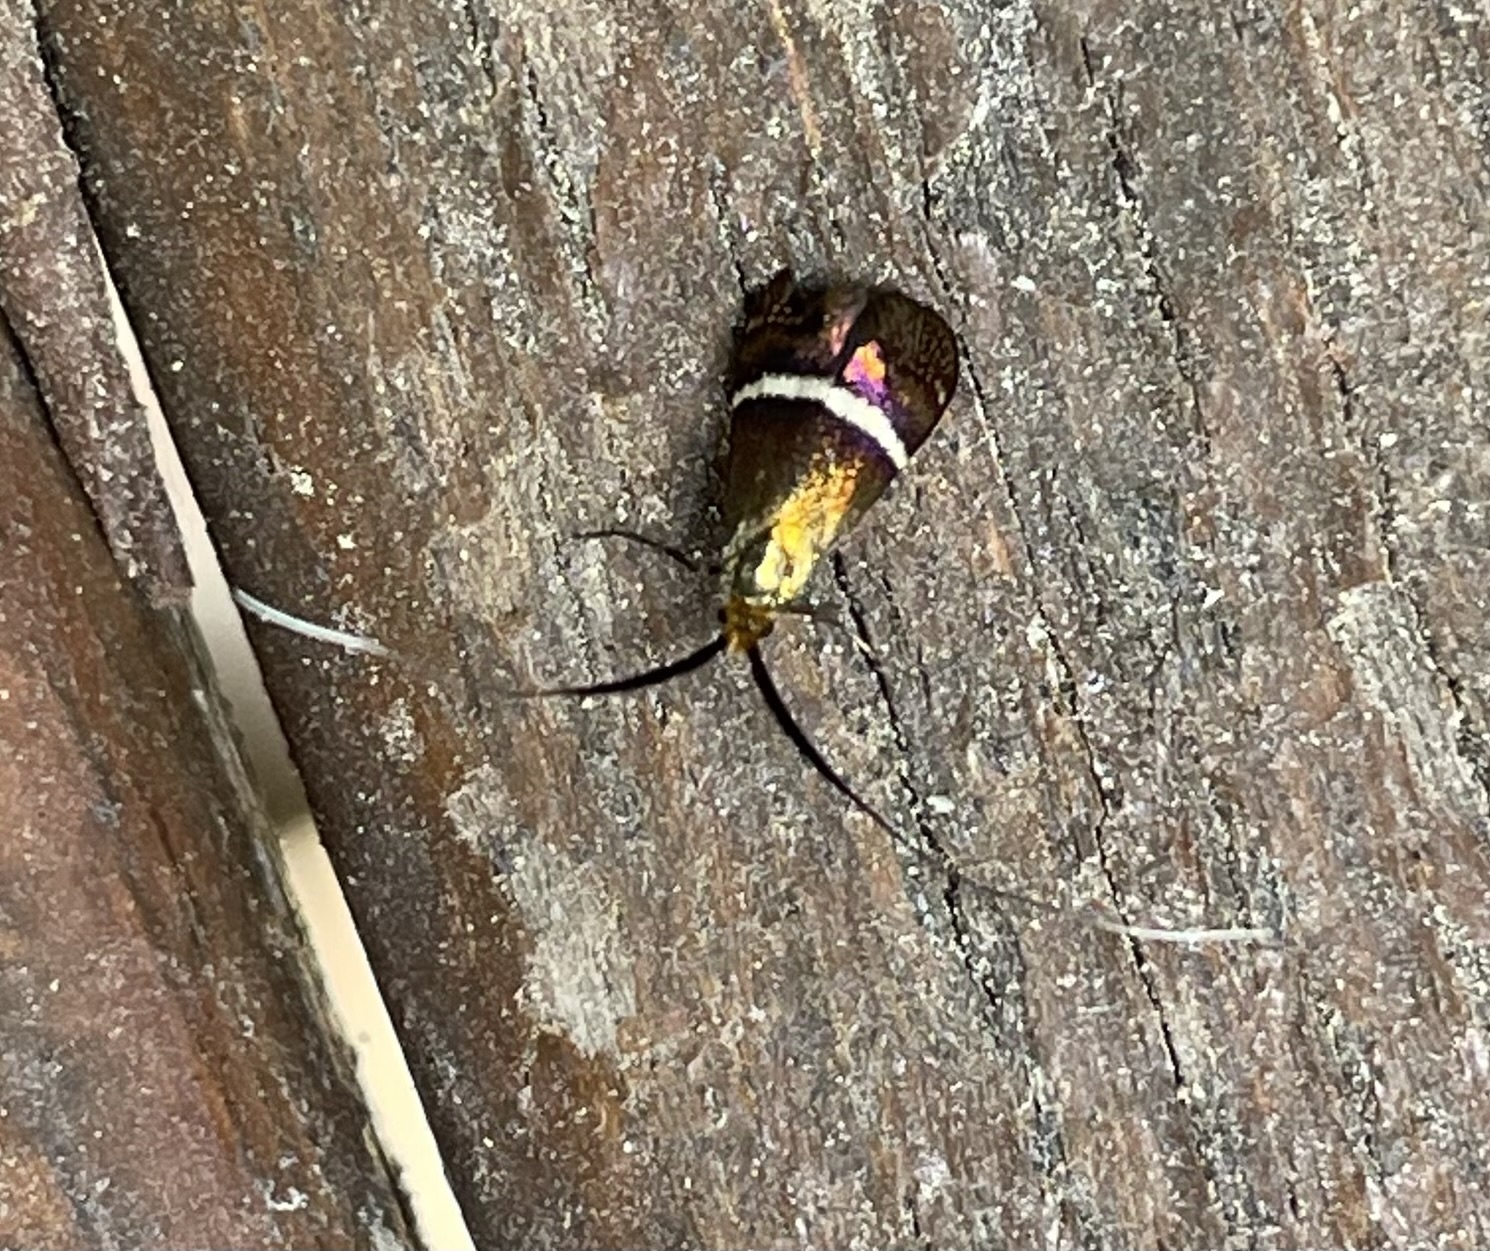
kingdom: Animalia
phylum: Arthropoda
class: Insecta
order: Lepidoptera
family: Adelidae
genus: Adela
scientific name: Adela australis
